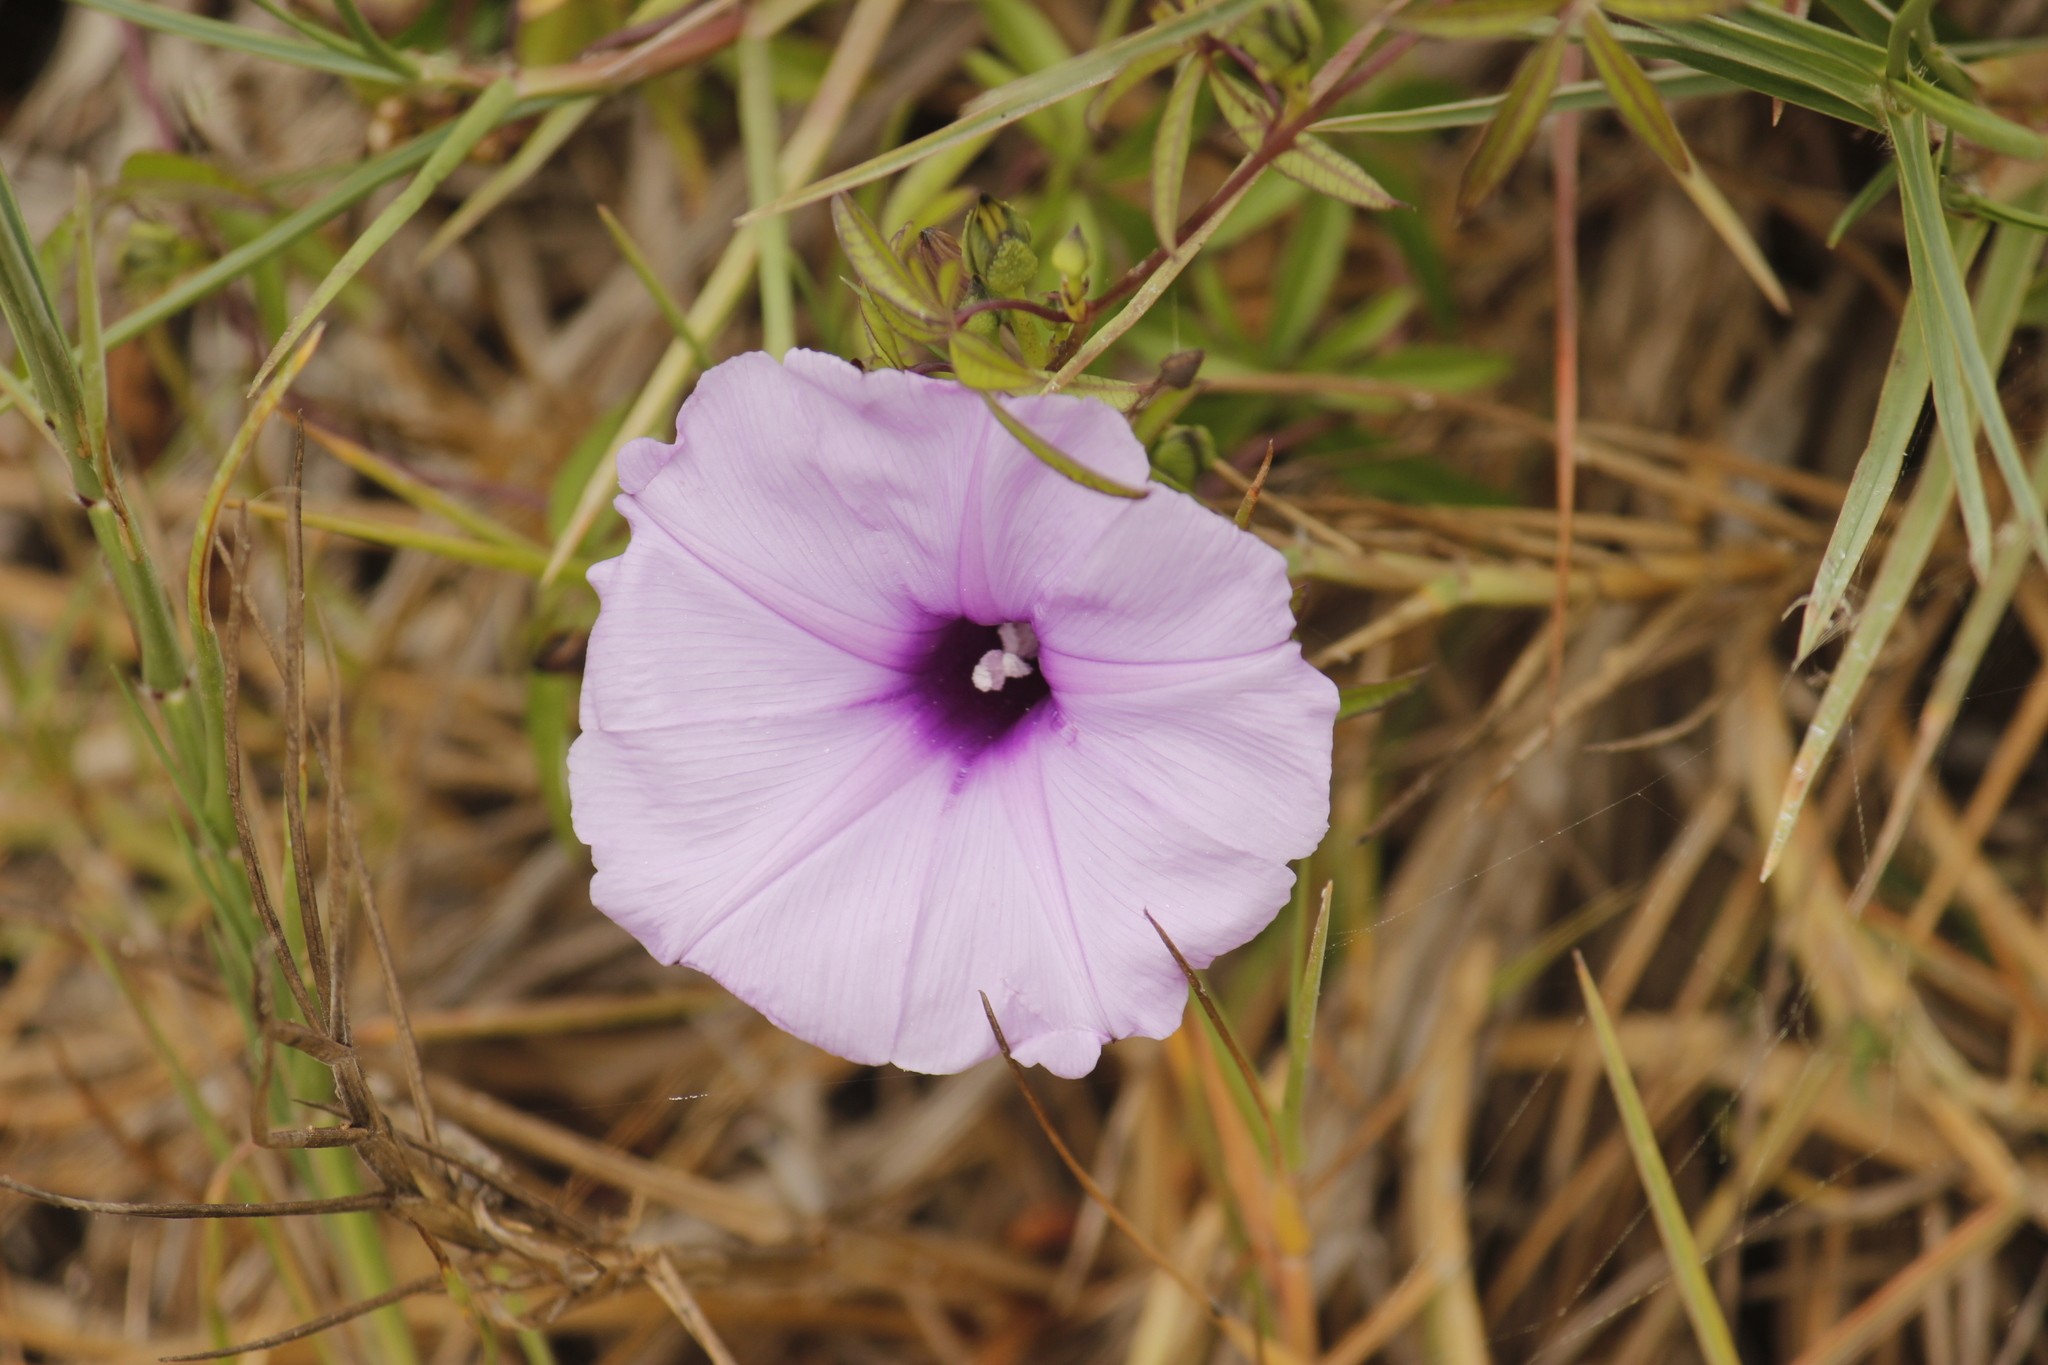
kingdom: Plantae
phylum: Tracheophyta
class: Magnoliopsida
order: Solanales
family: Convolvulaceae
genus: Ipomoea
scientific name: Ipomoea cairica
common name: Mile a minute vine
